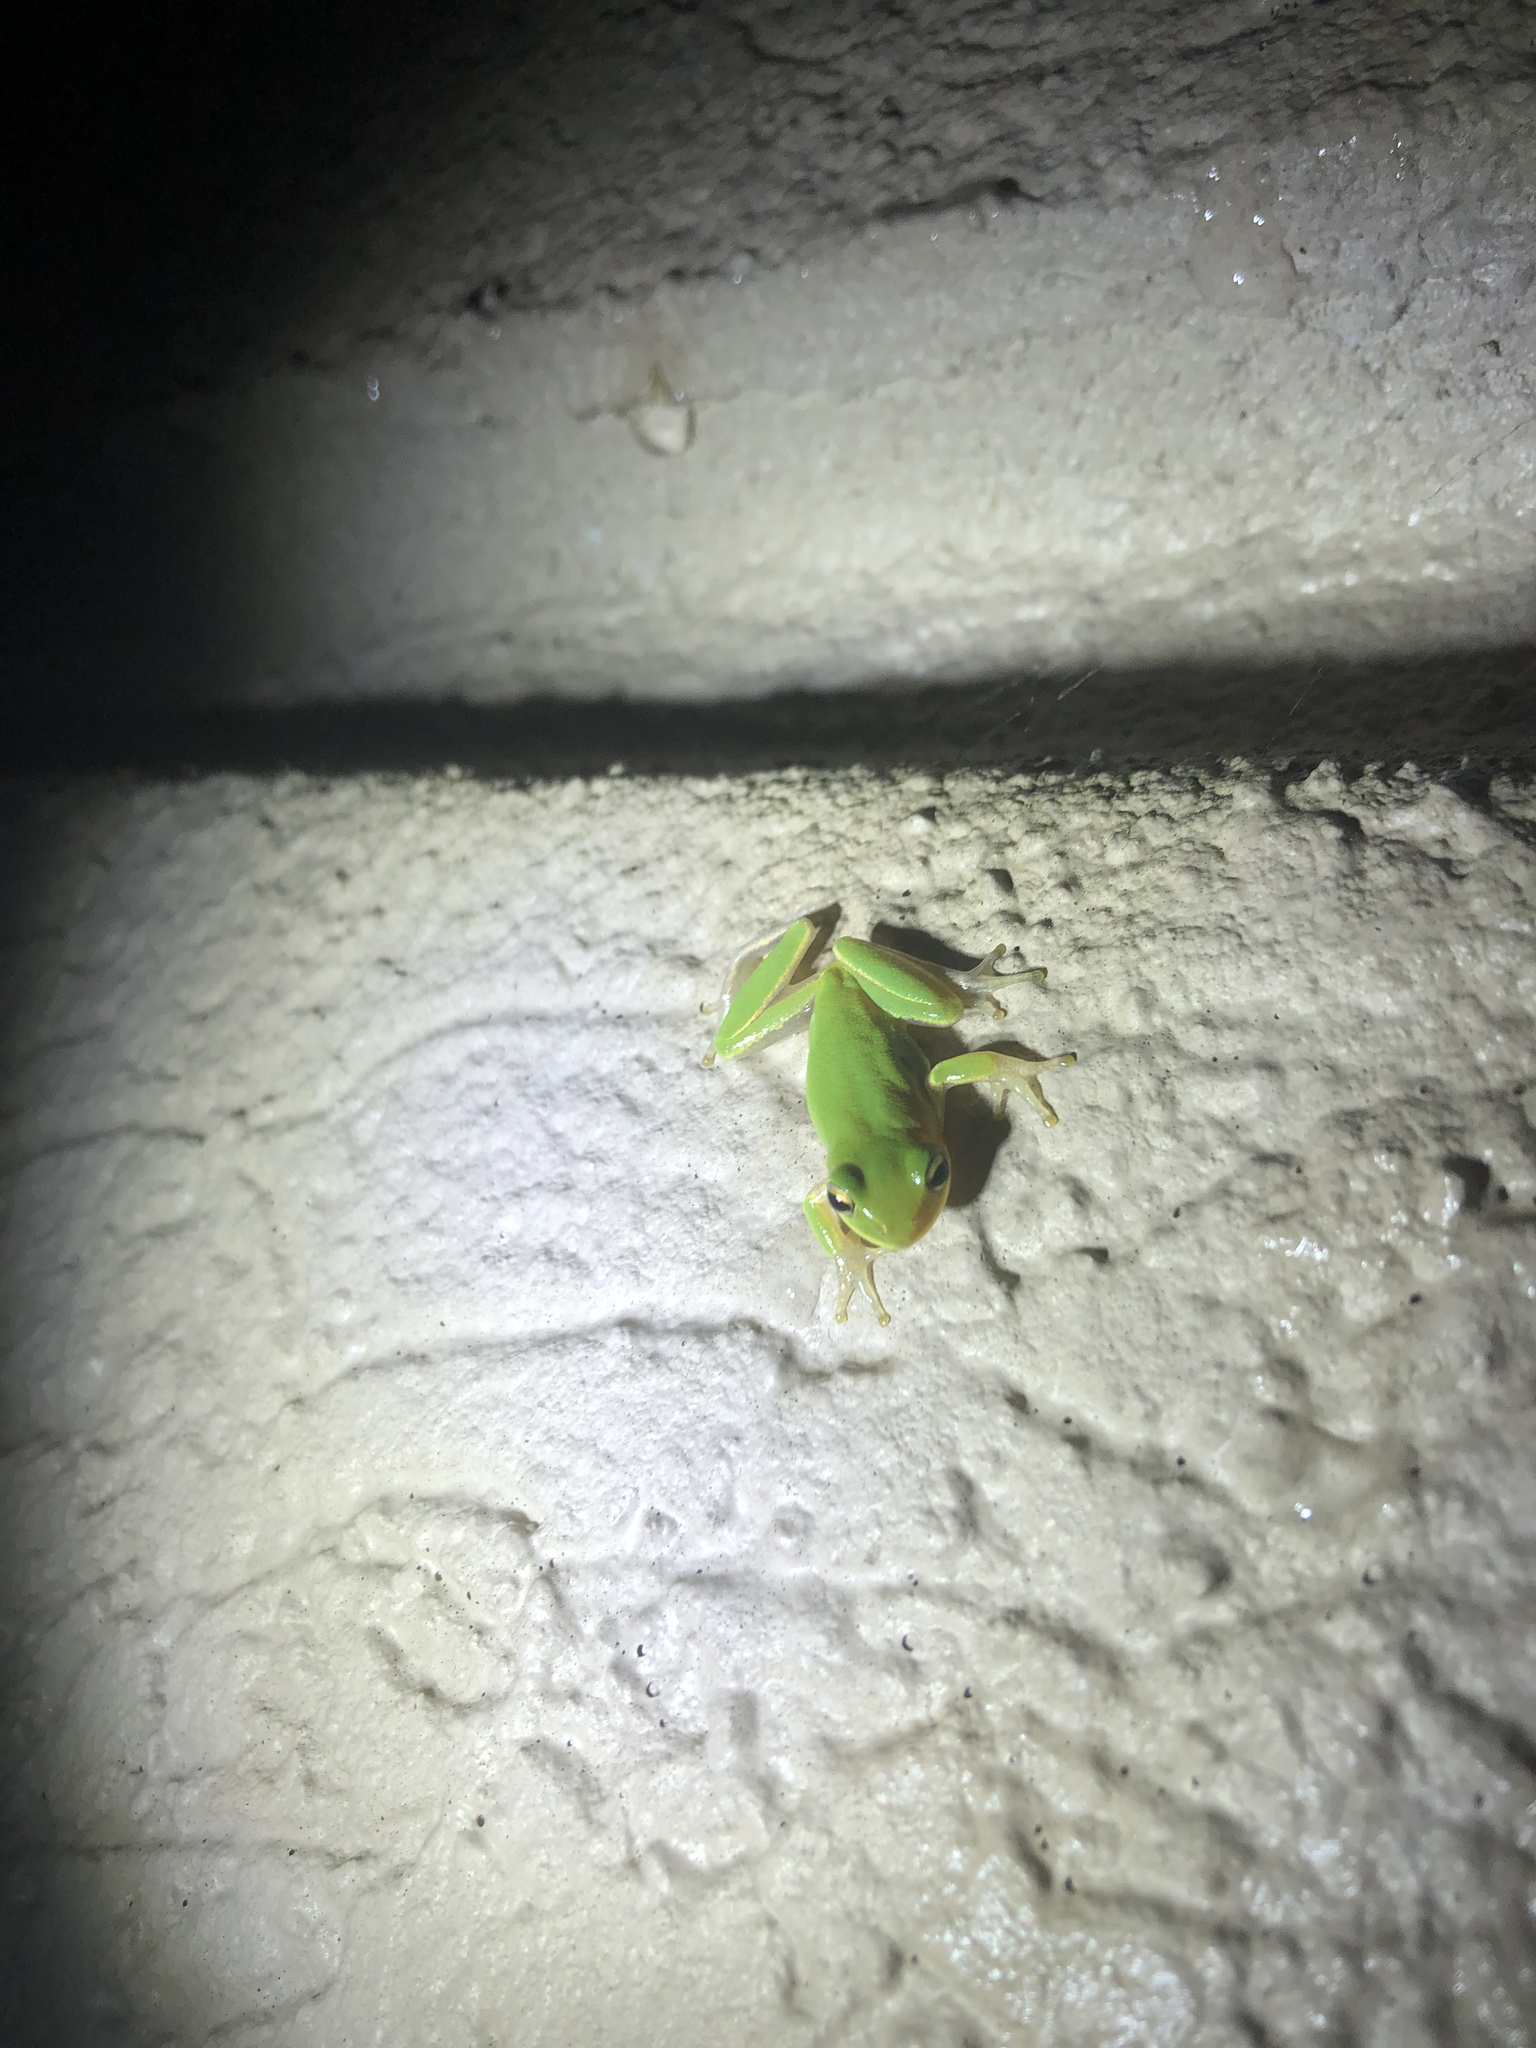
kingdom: Animalia
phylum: Chordata
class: Amphibia
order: Anura
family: Hylidae
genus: Dryophytes
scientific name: Dryophytes squirellus
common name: Squirrel treefrog
